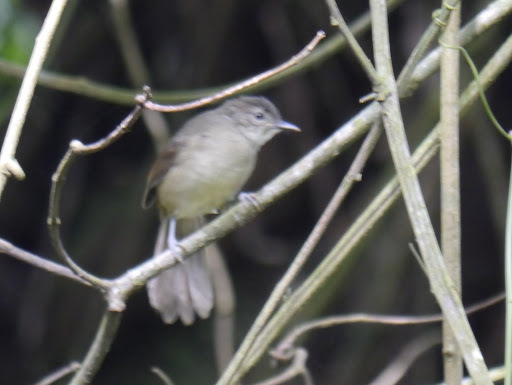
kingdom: Animalia
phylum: Chordata
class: Aves
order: Passeriformes
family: Pycnonotidae
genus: Stelgidillas
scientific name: Stelgidillas gracilirostris
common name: Slender-billed greenbul
